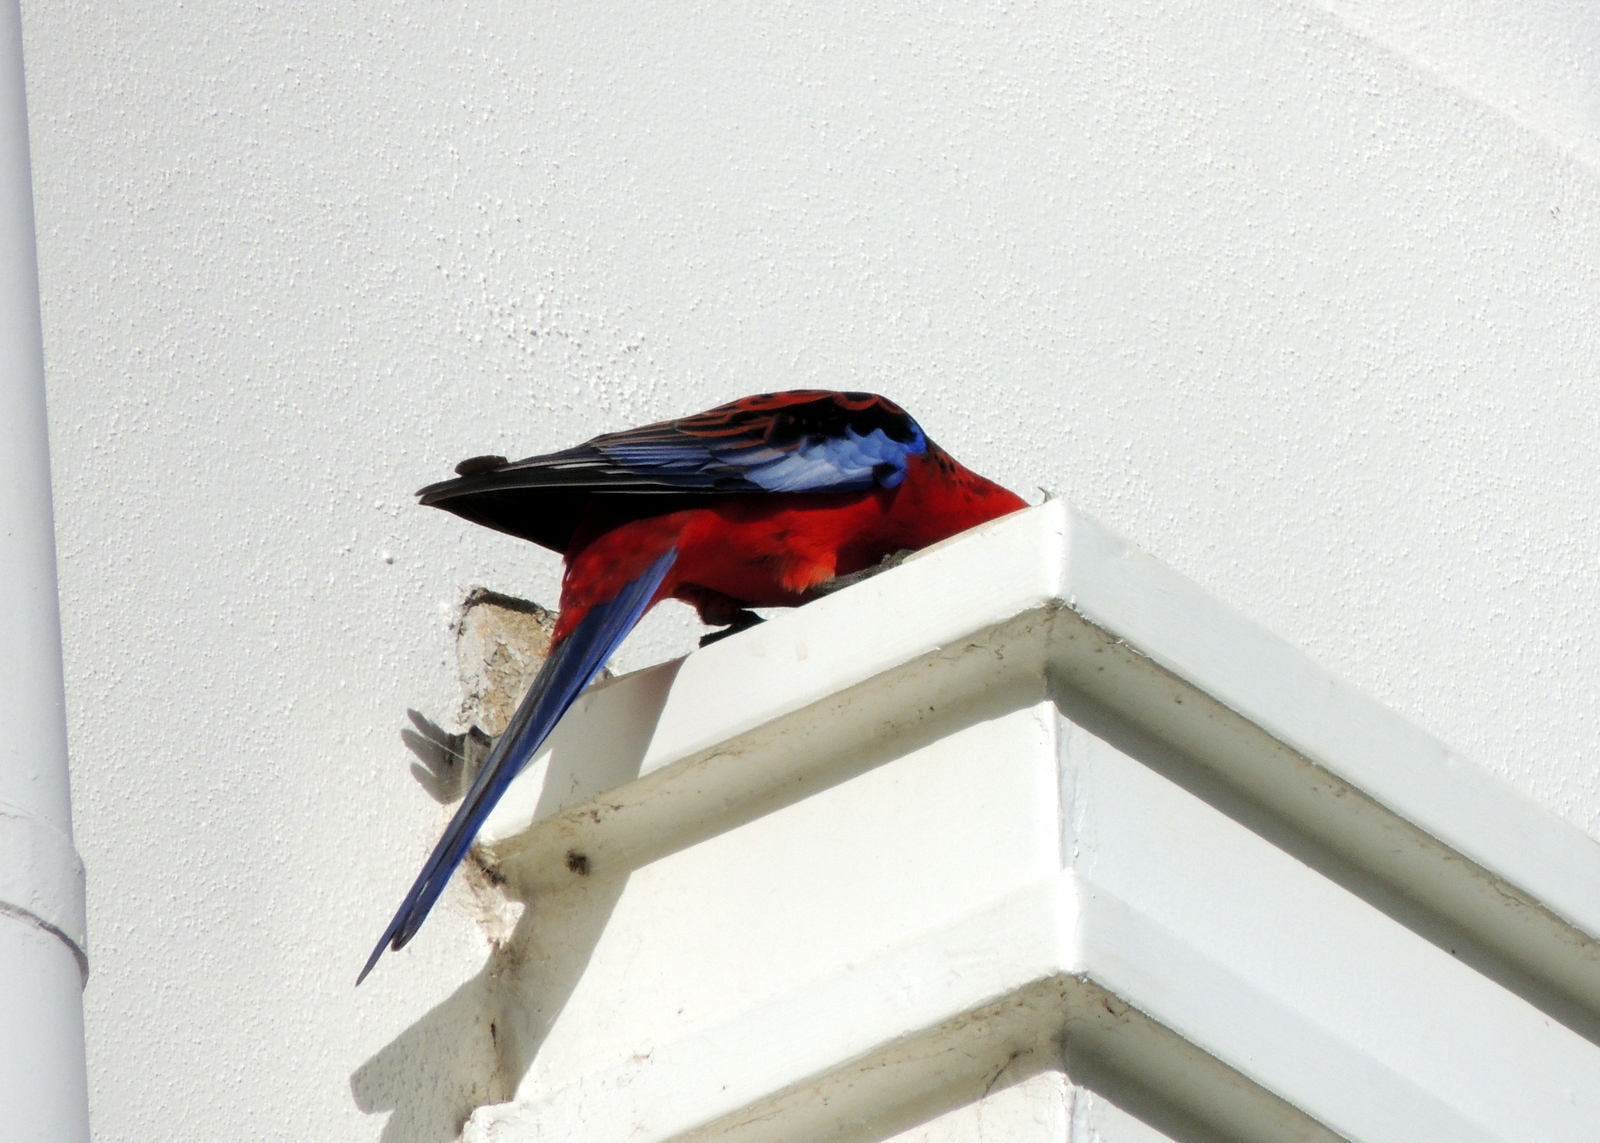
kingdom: Animalia
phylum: Chordata
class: Aves
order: Psittaciformes
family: Psittacidae
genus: Platycercus
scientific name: Platycercus elegans
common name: Crimson rosella
